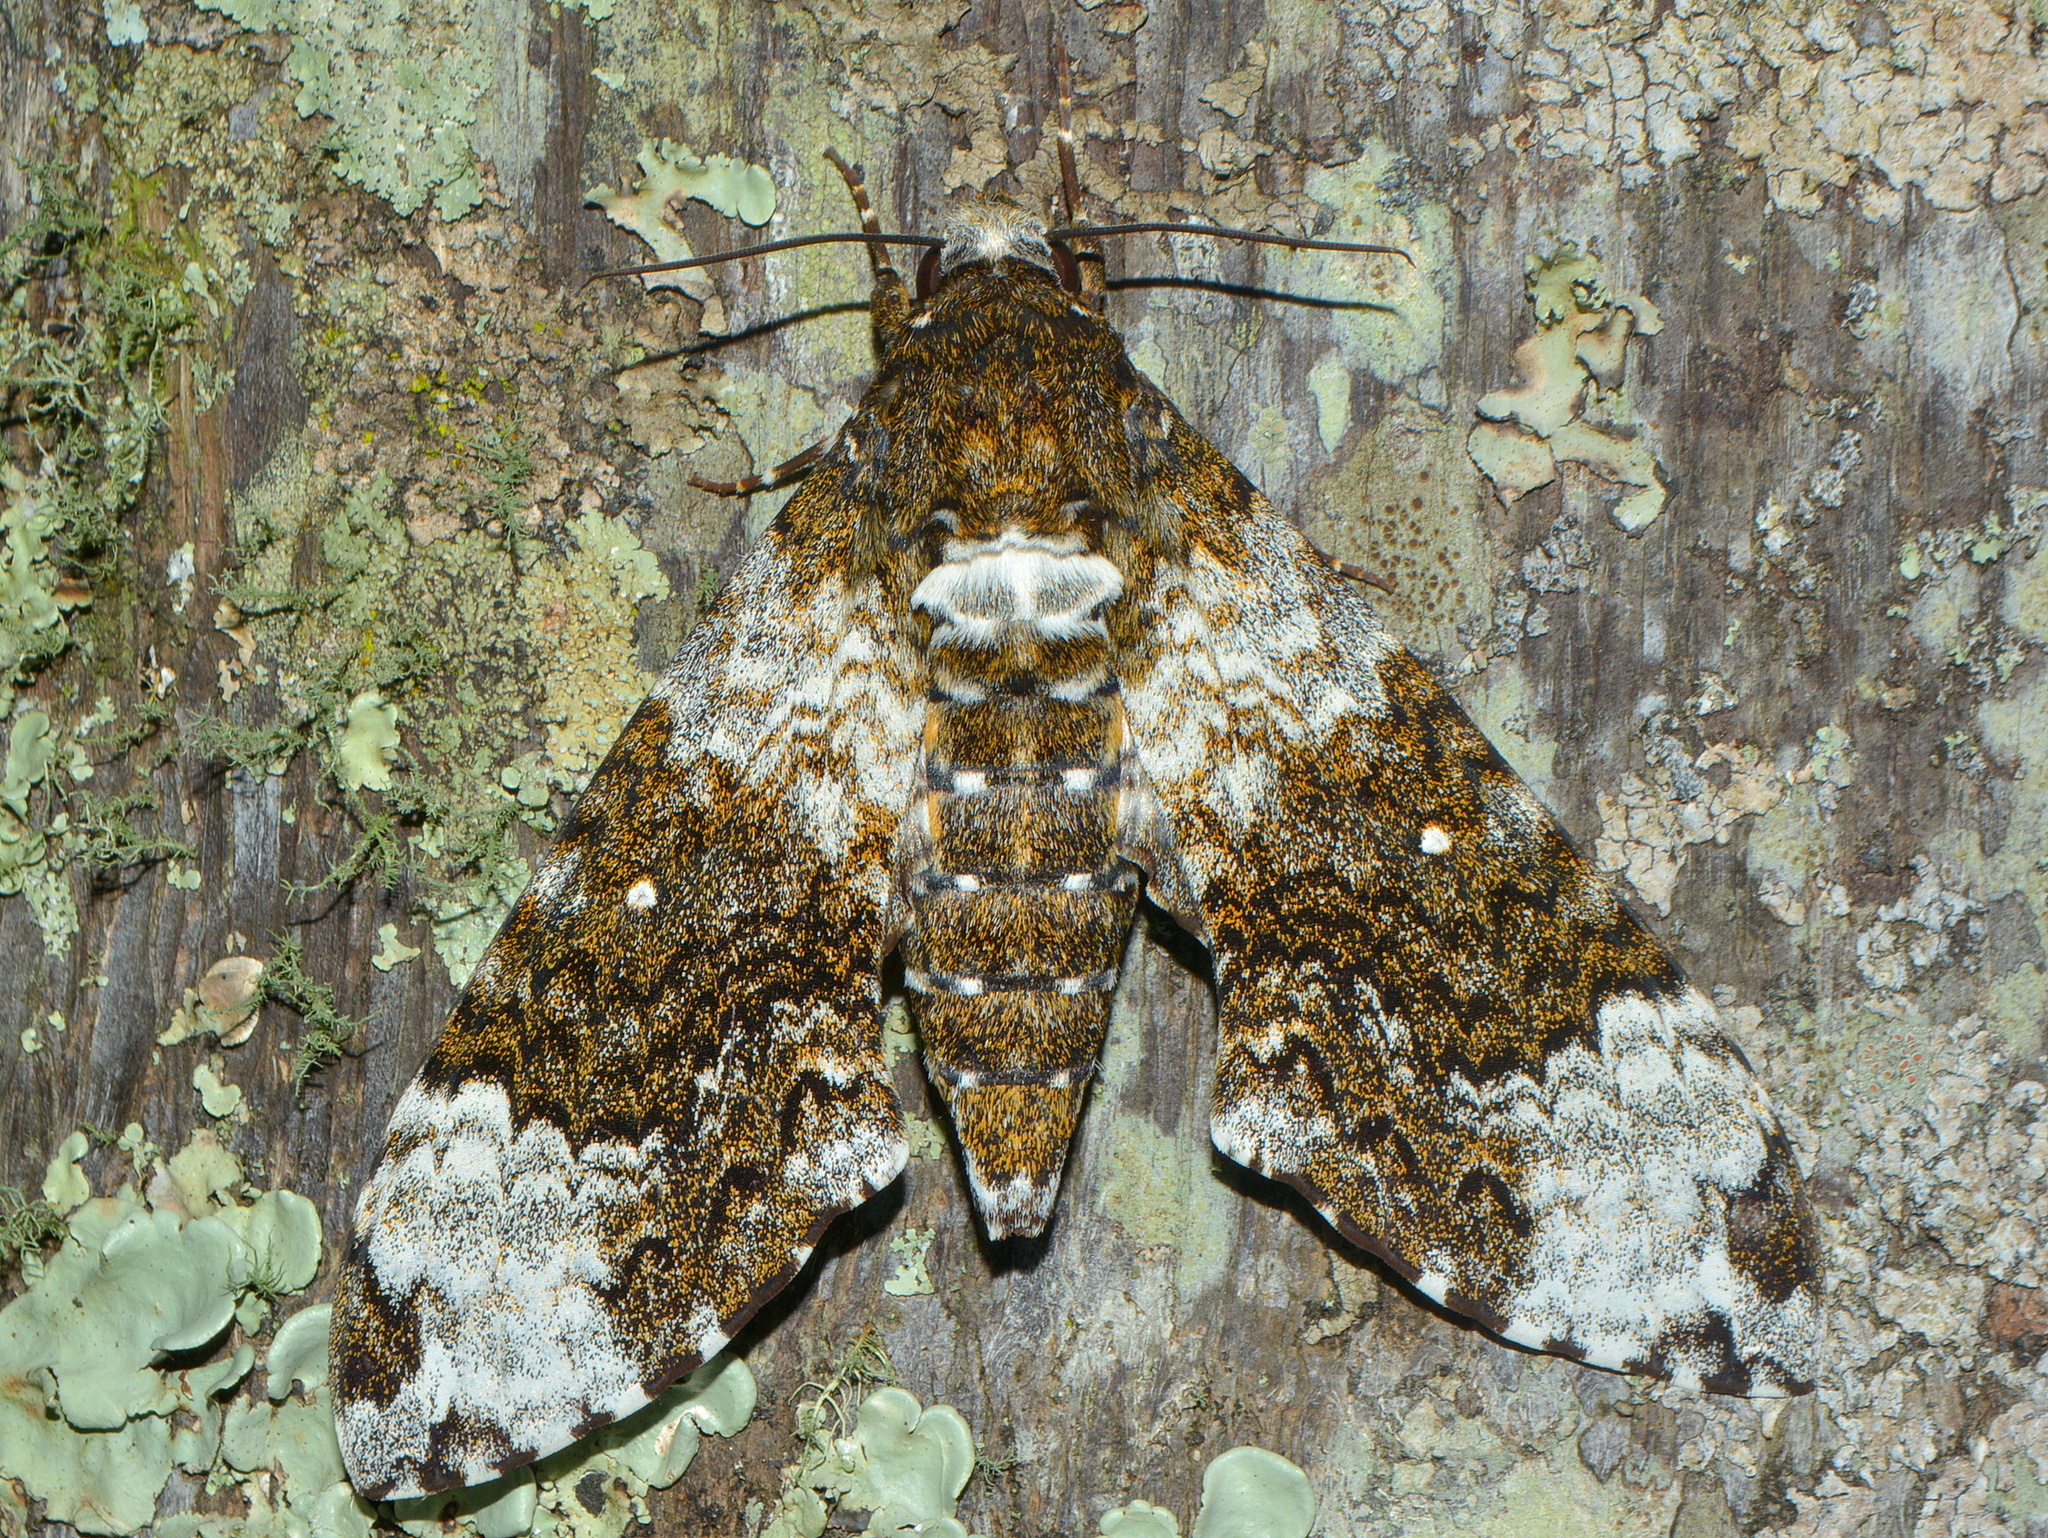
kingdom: Animalia
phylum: Arthropoda
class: Insecta
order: Lepidoptera
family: Sphingidae
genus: Manduca
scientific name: Manduca albiplaga
